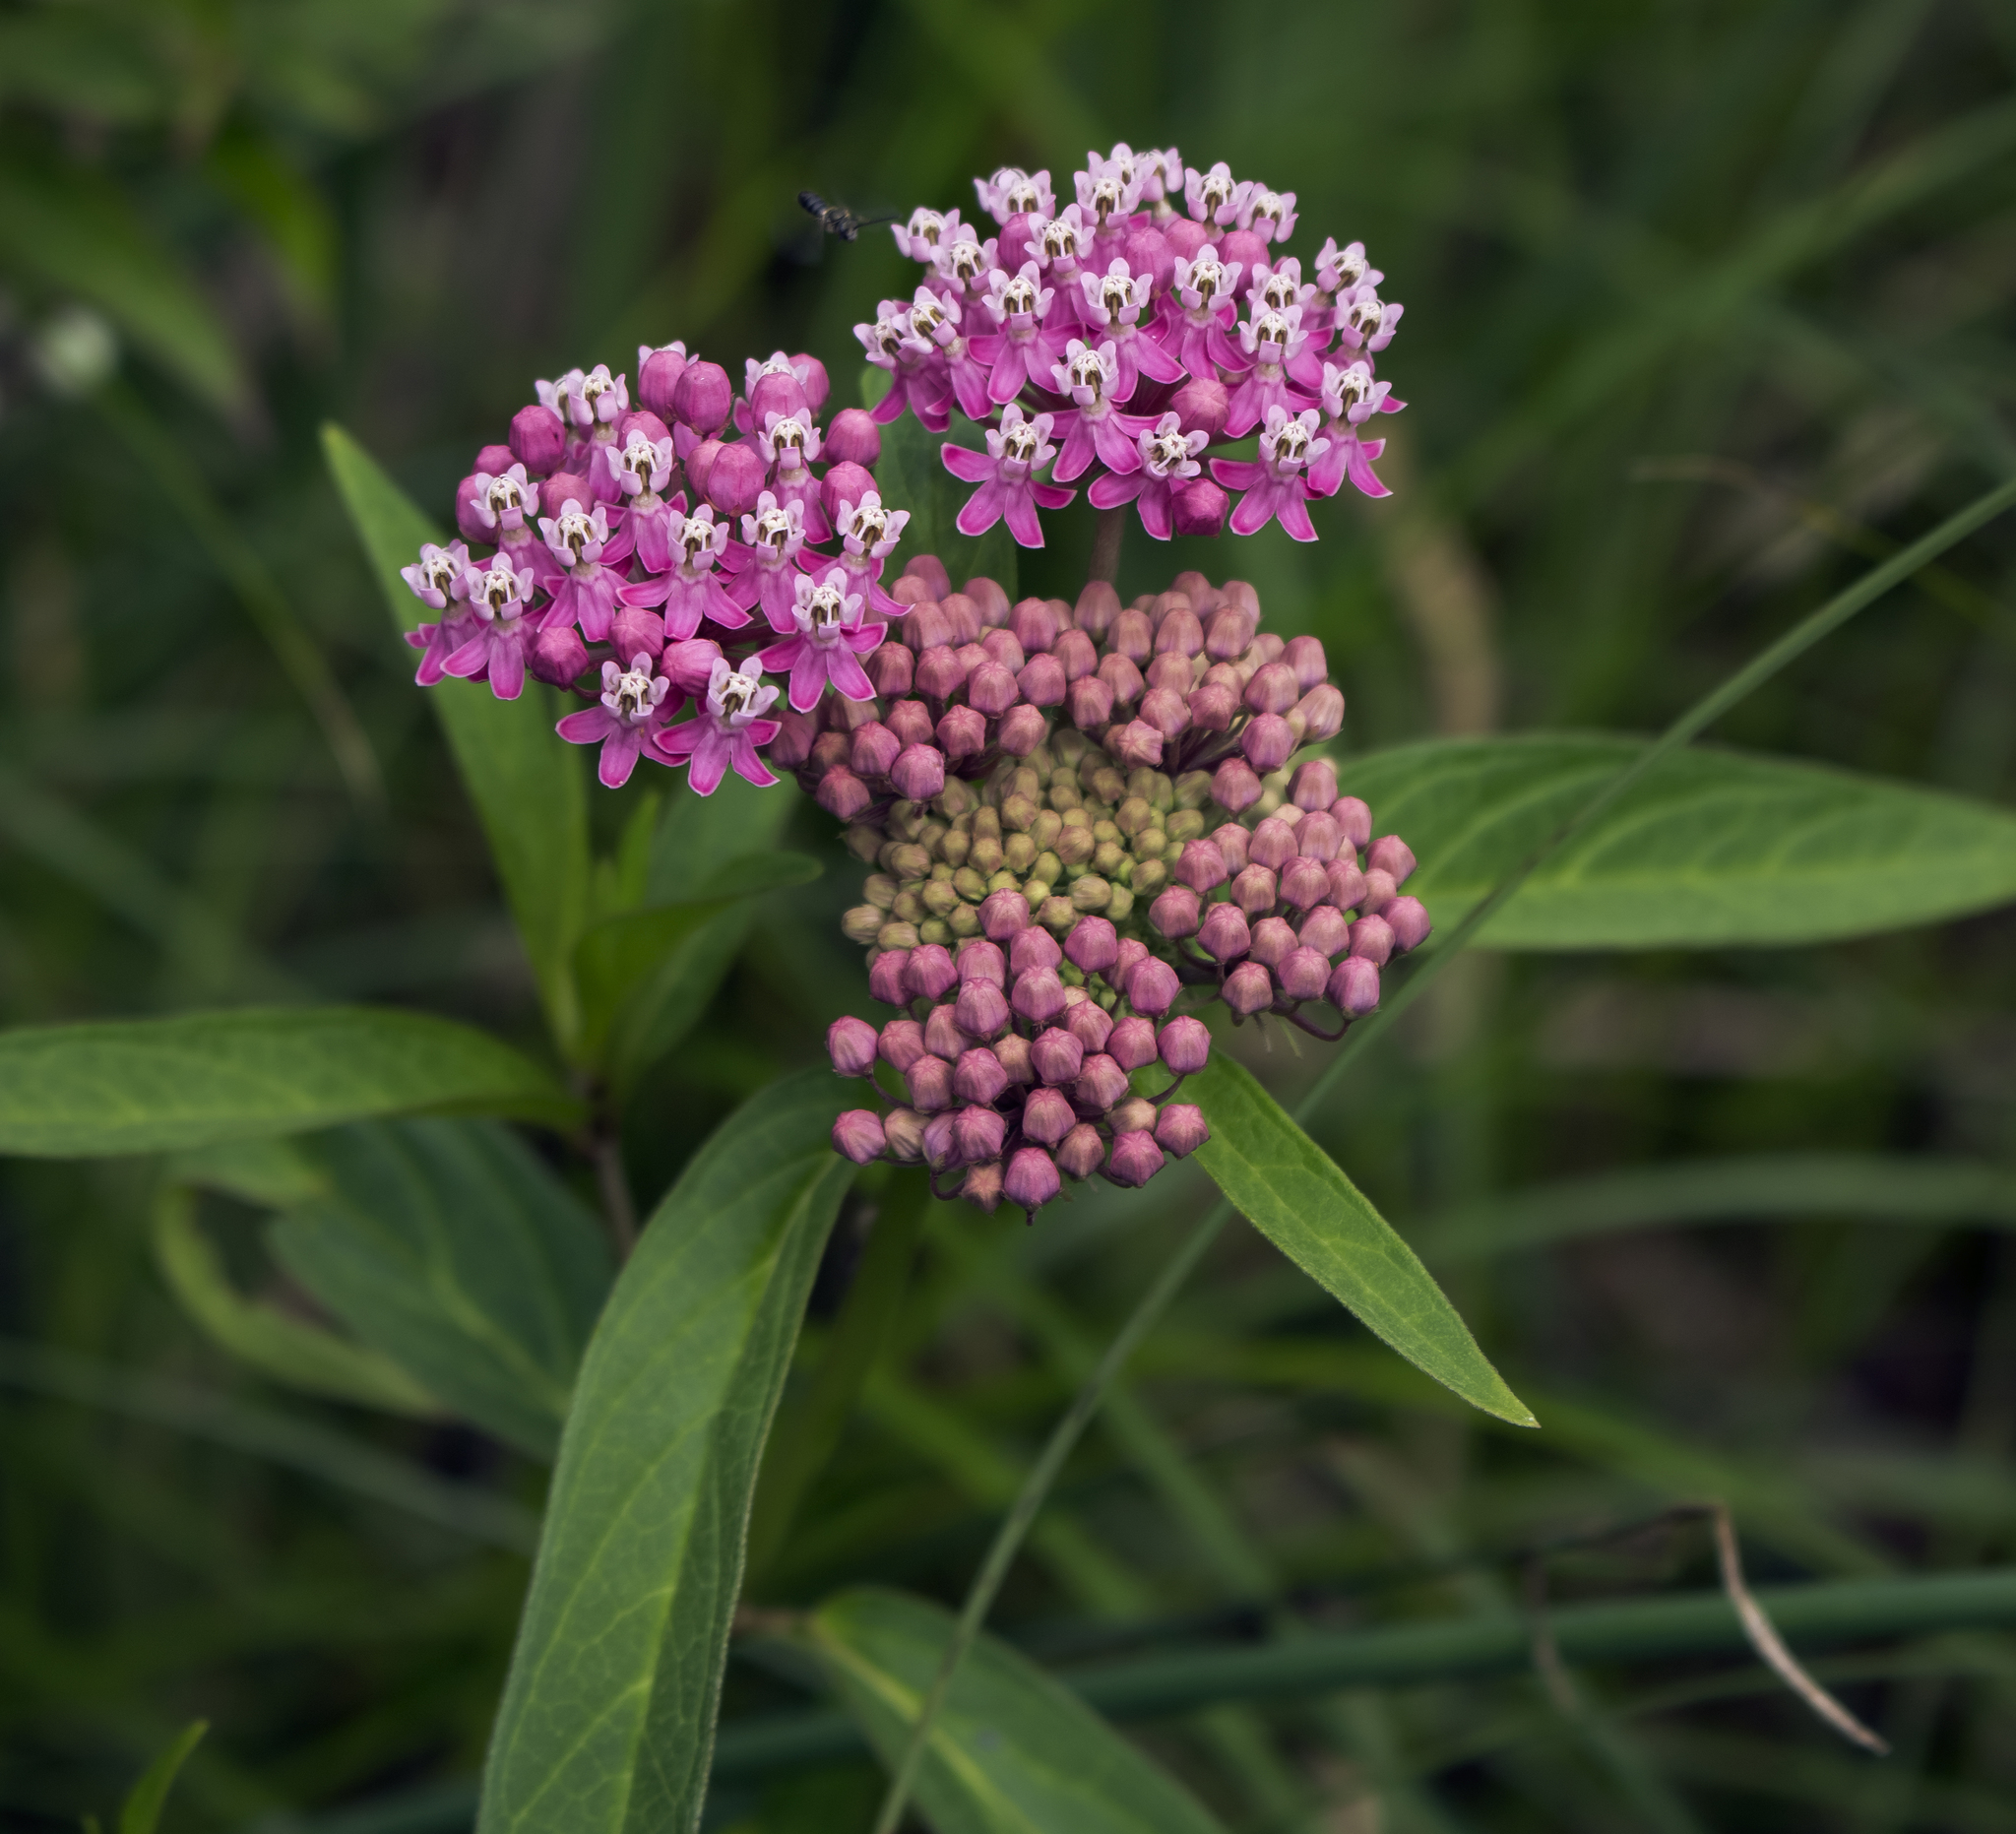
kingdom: Plantae
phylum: Tracheophyta
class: Magnoliopsida
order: Gentianales
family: Apocynaceae
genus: Asclepias
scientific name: Asclepias incarnata
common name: Swamp milkweed
